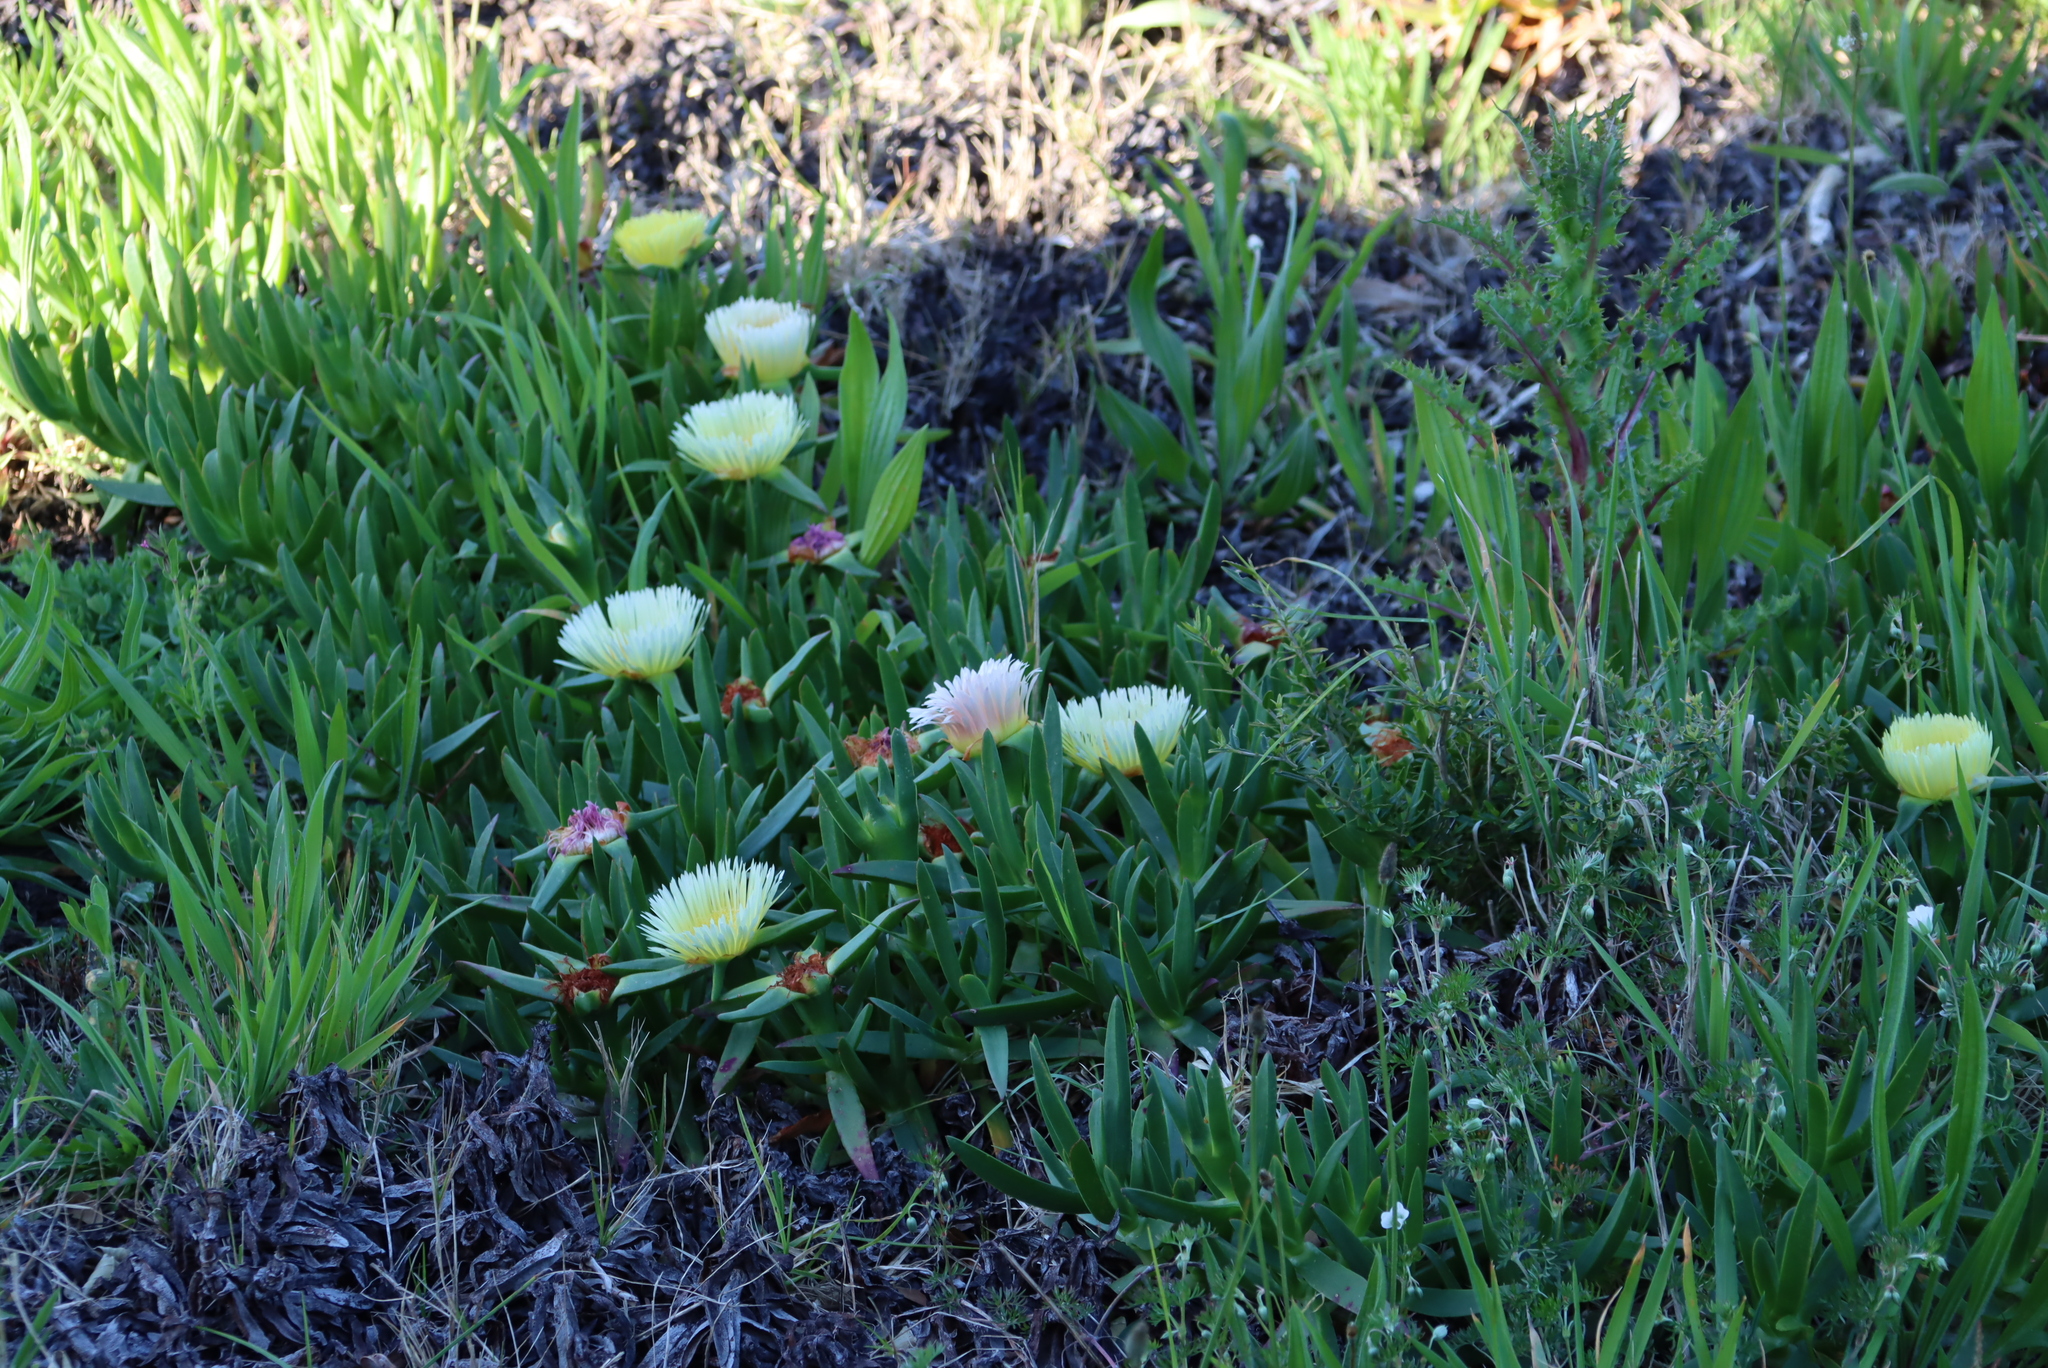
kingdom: Plantae
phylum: Tracheophyta
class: Magnoliopsida
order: Caryophyllales
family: Aizoaceae
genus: Carpobrotus
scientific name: Carpobrotus edulis
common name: Hottentot-fig
